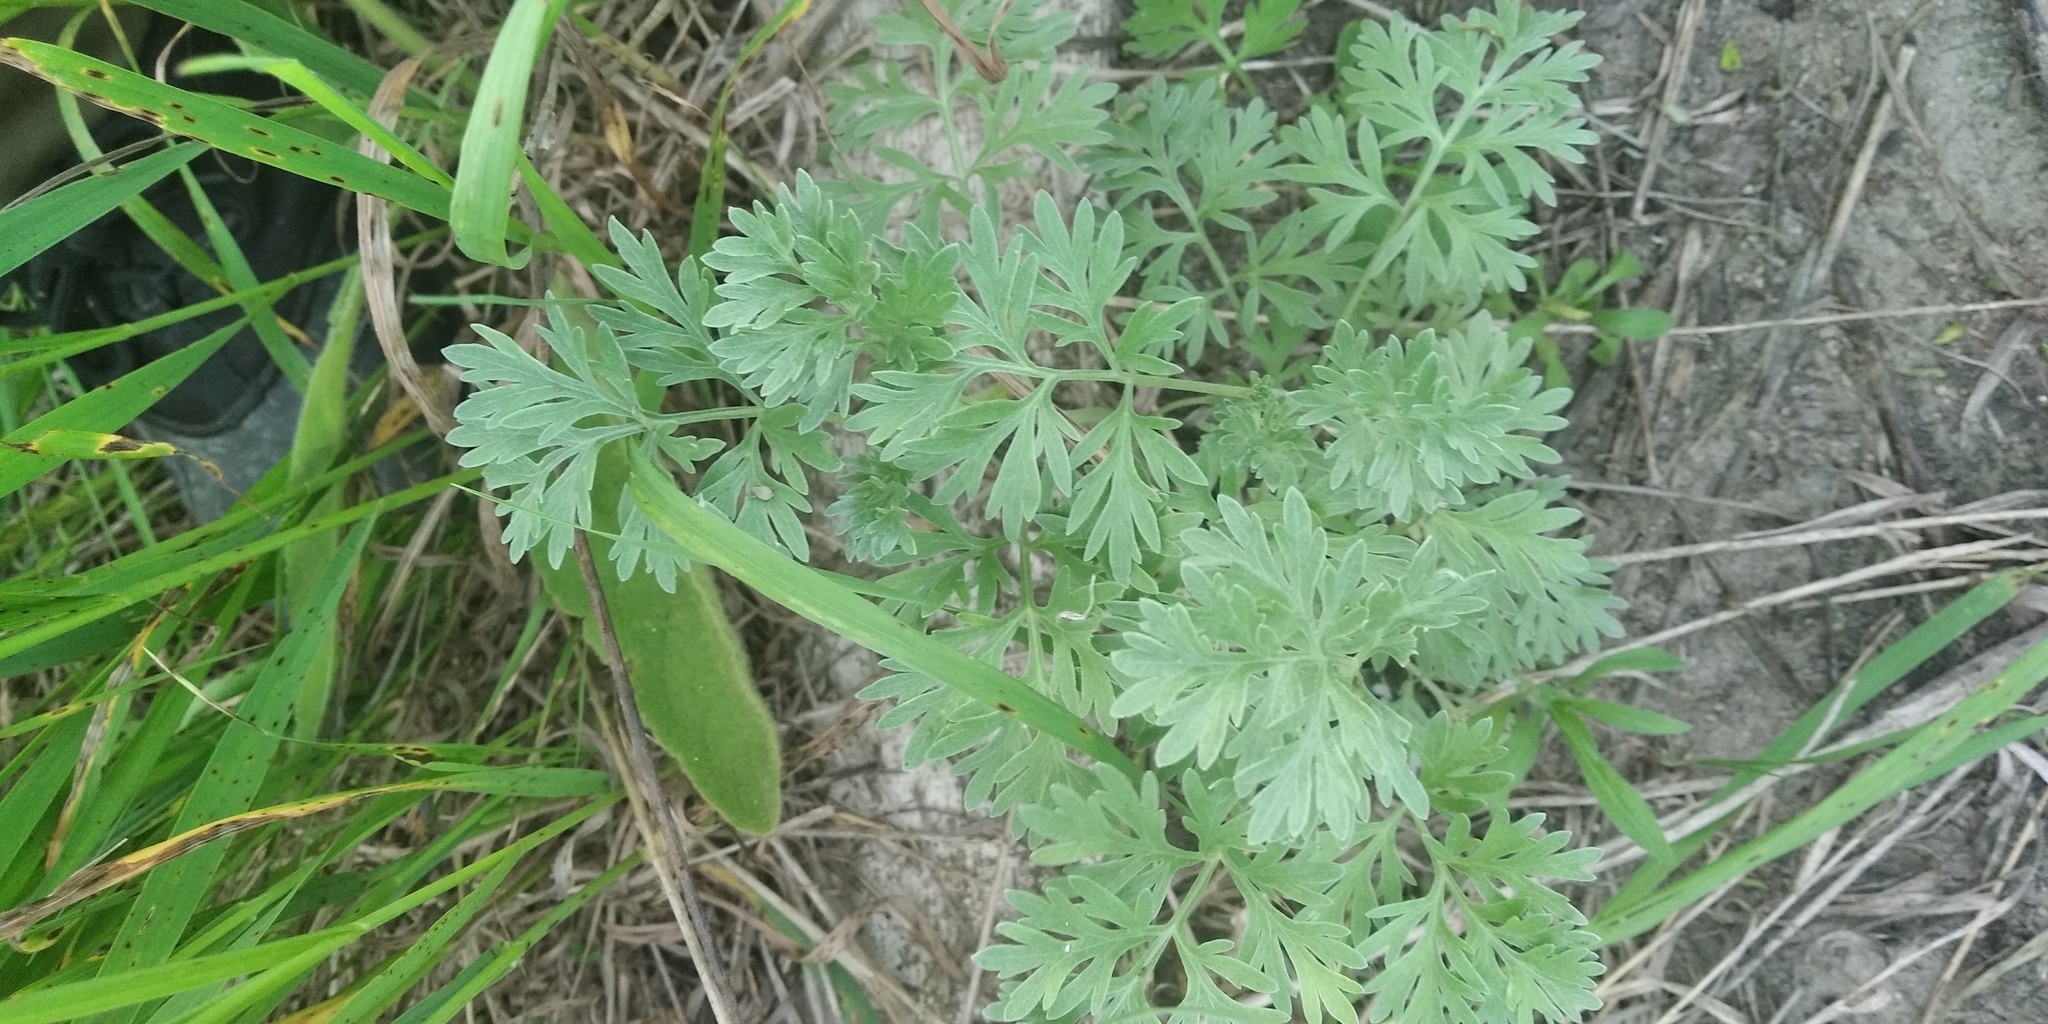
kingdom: Plantae
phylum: Tracheophyta
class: Magnoliopsida
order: Asterales
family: Asteraceae
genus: Artemisia
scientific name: Artemisia absinthium
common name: Wormwood
